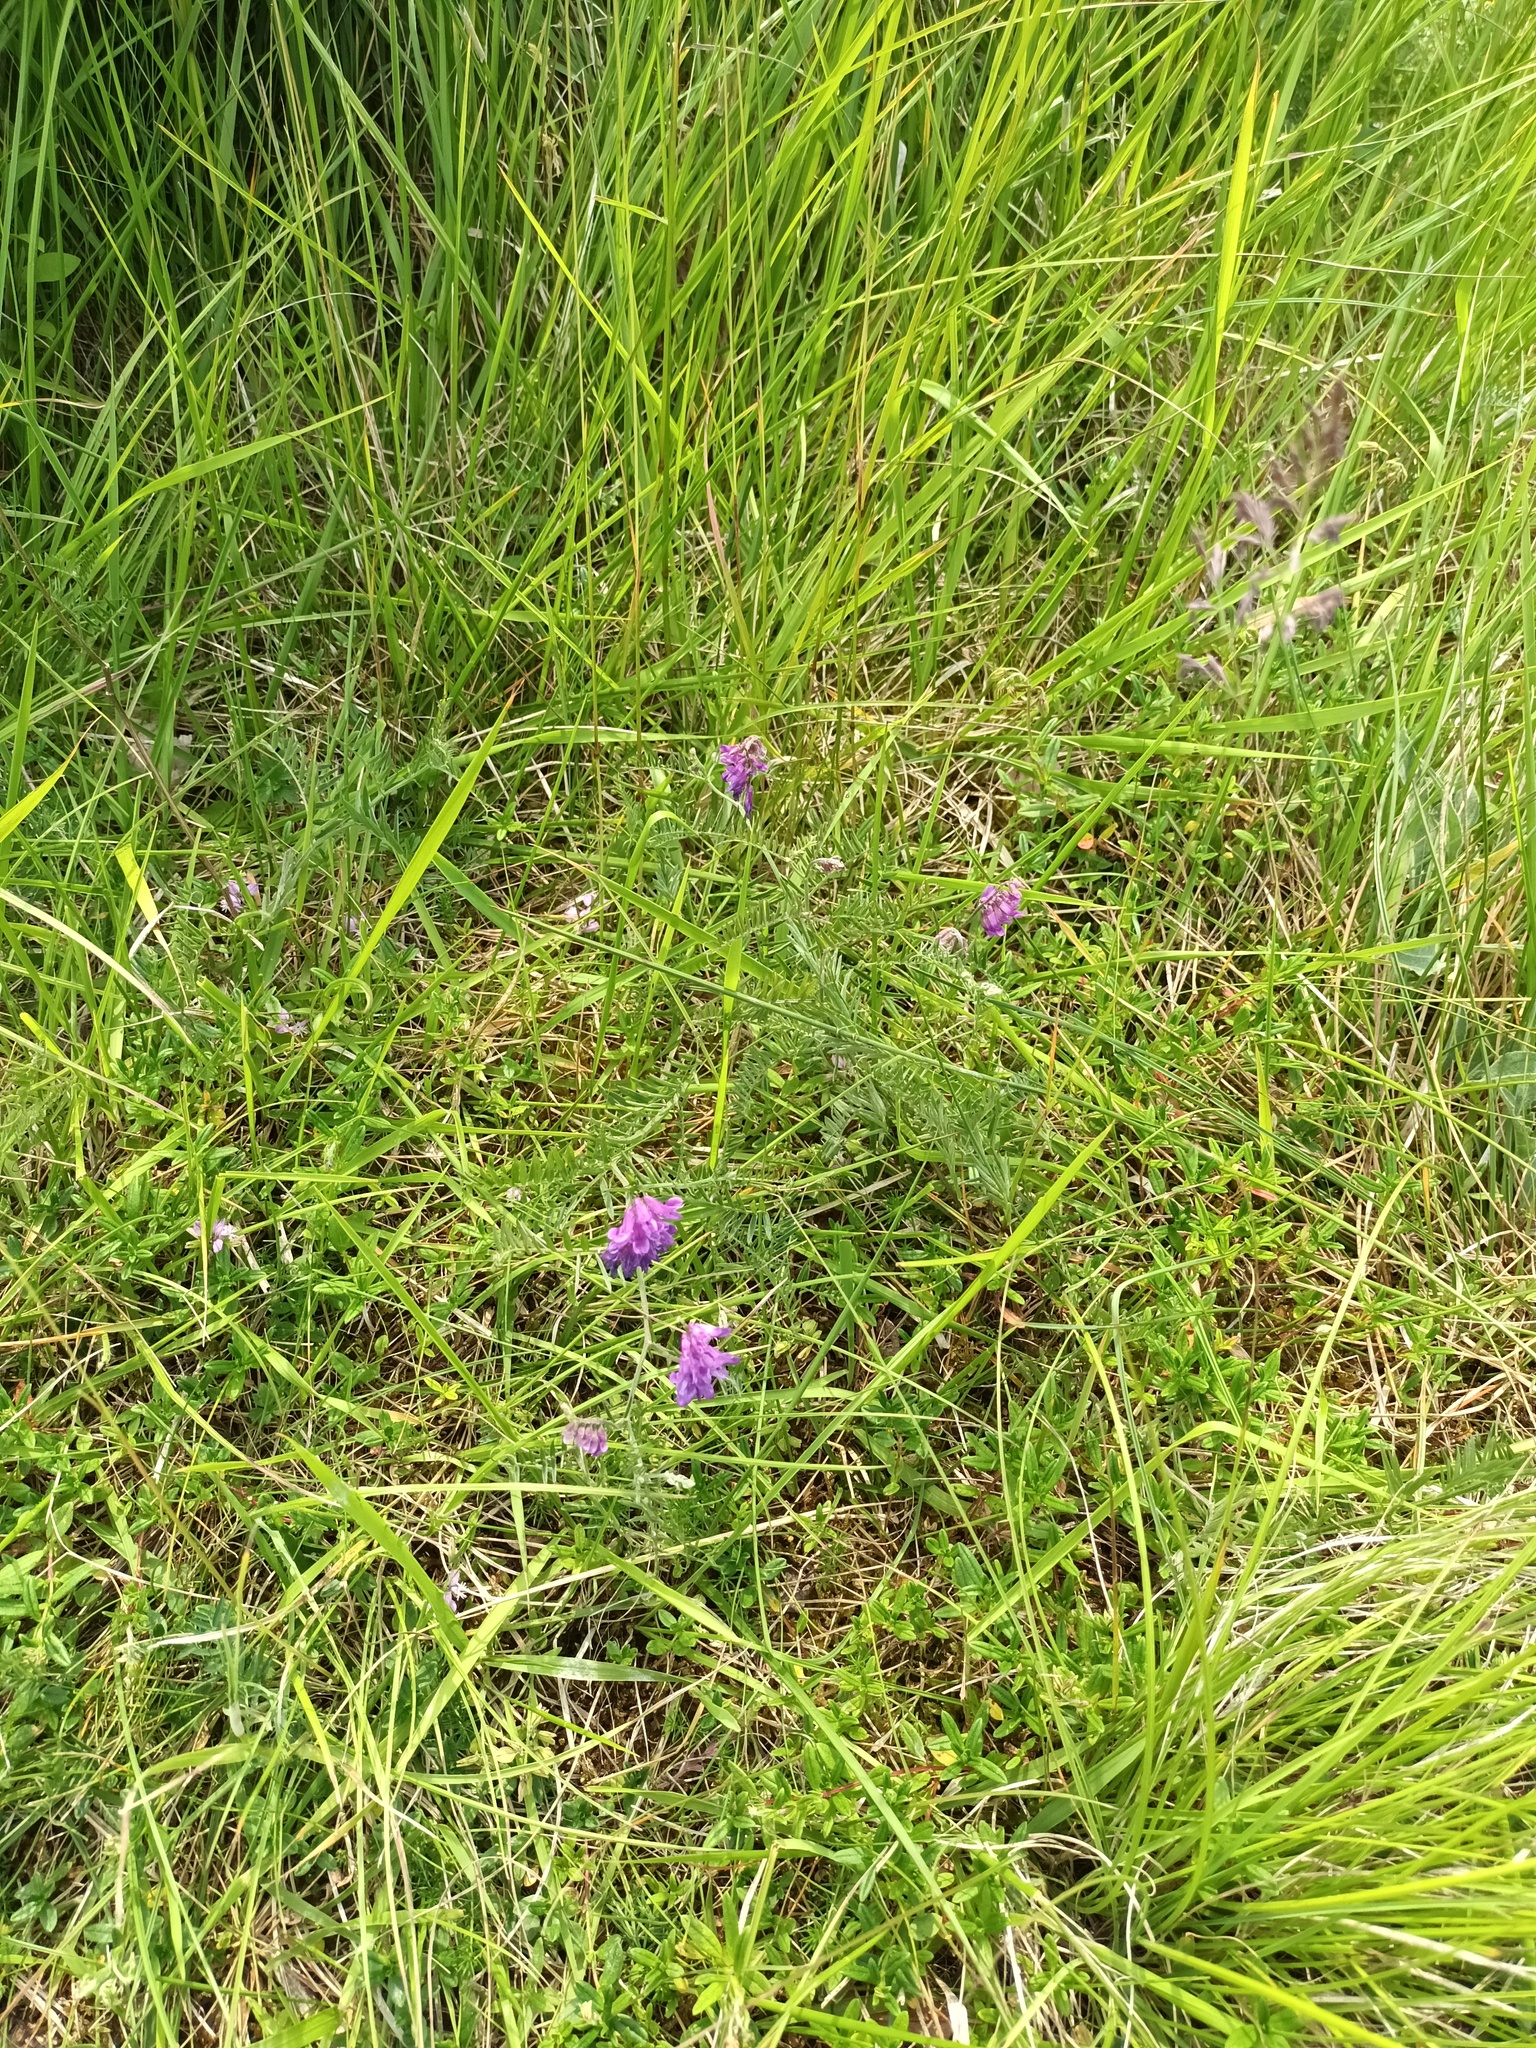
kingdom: Plantae
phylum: Tracheophyta
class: Magnoliopsida
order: Fabales
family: Fabaceae
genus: Vicia
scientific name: Vicia cracca
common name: Bird vetch
